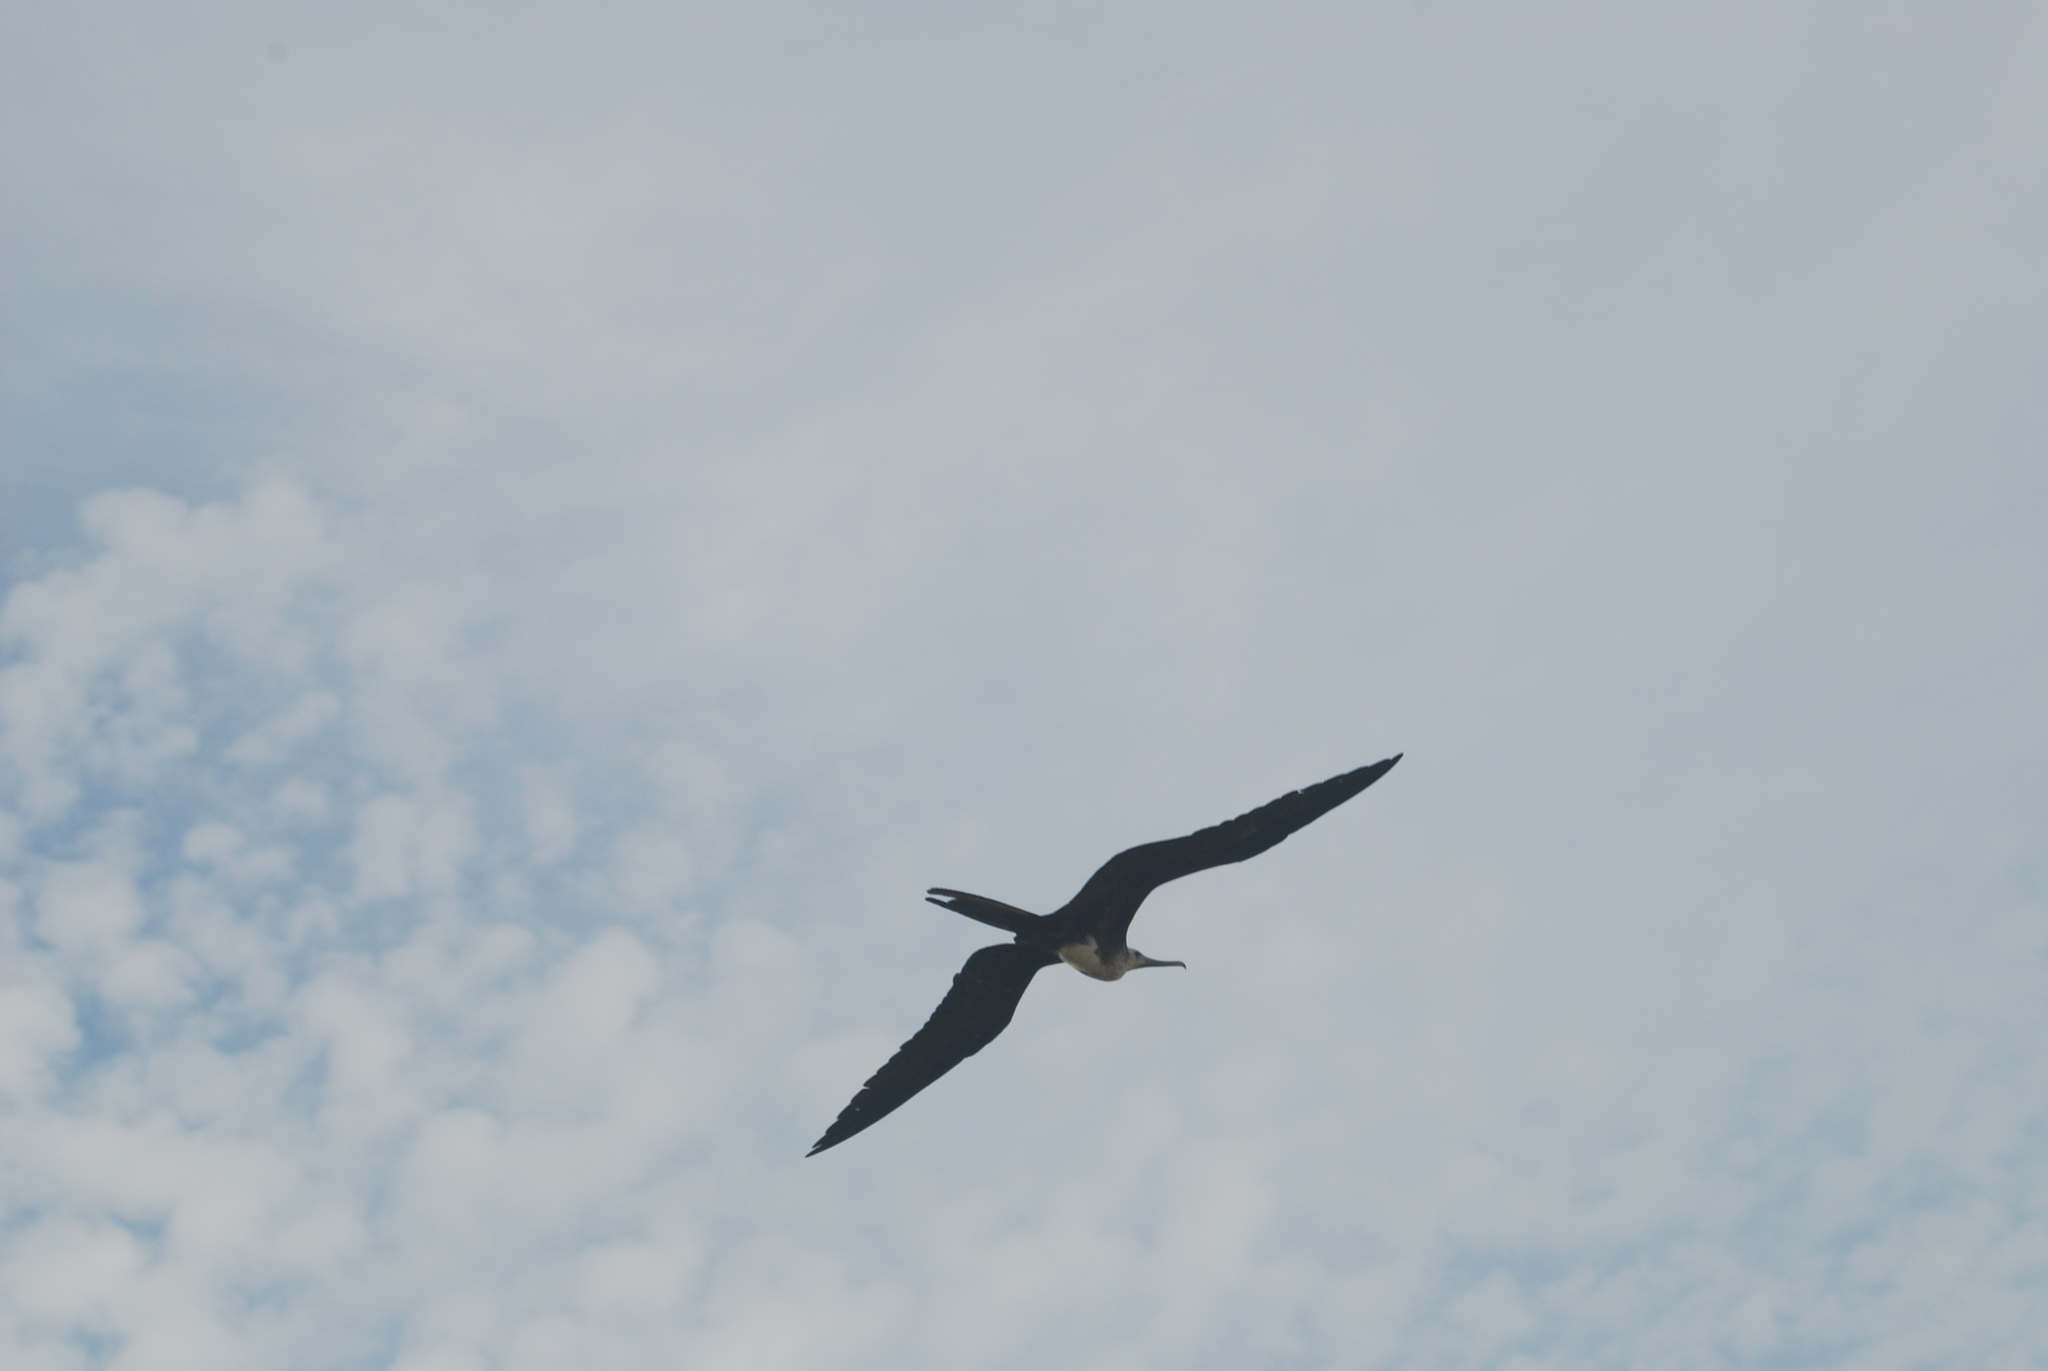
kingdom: Animalia
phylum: Chordata
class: Aves
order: Suliformes
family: Fregatidae
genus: Fregata
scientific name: Fregata magnificens
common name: Magnificent frigatebird
